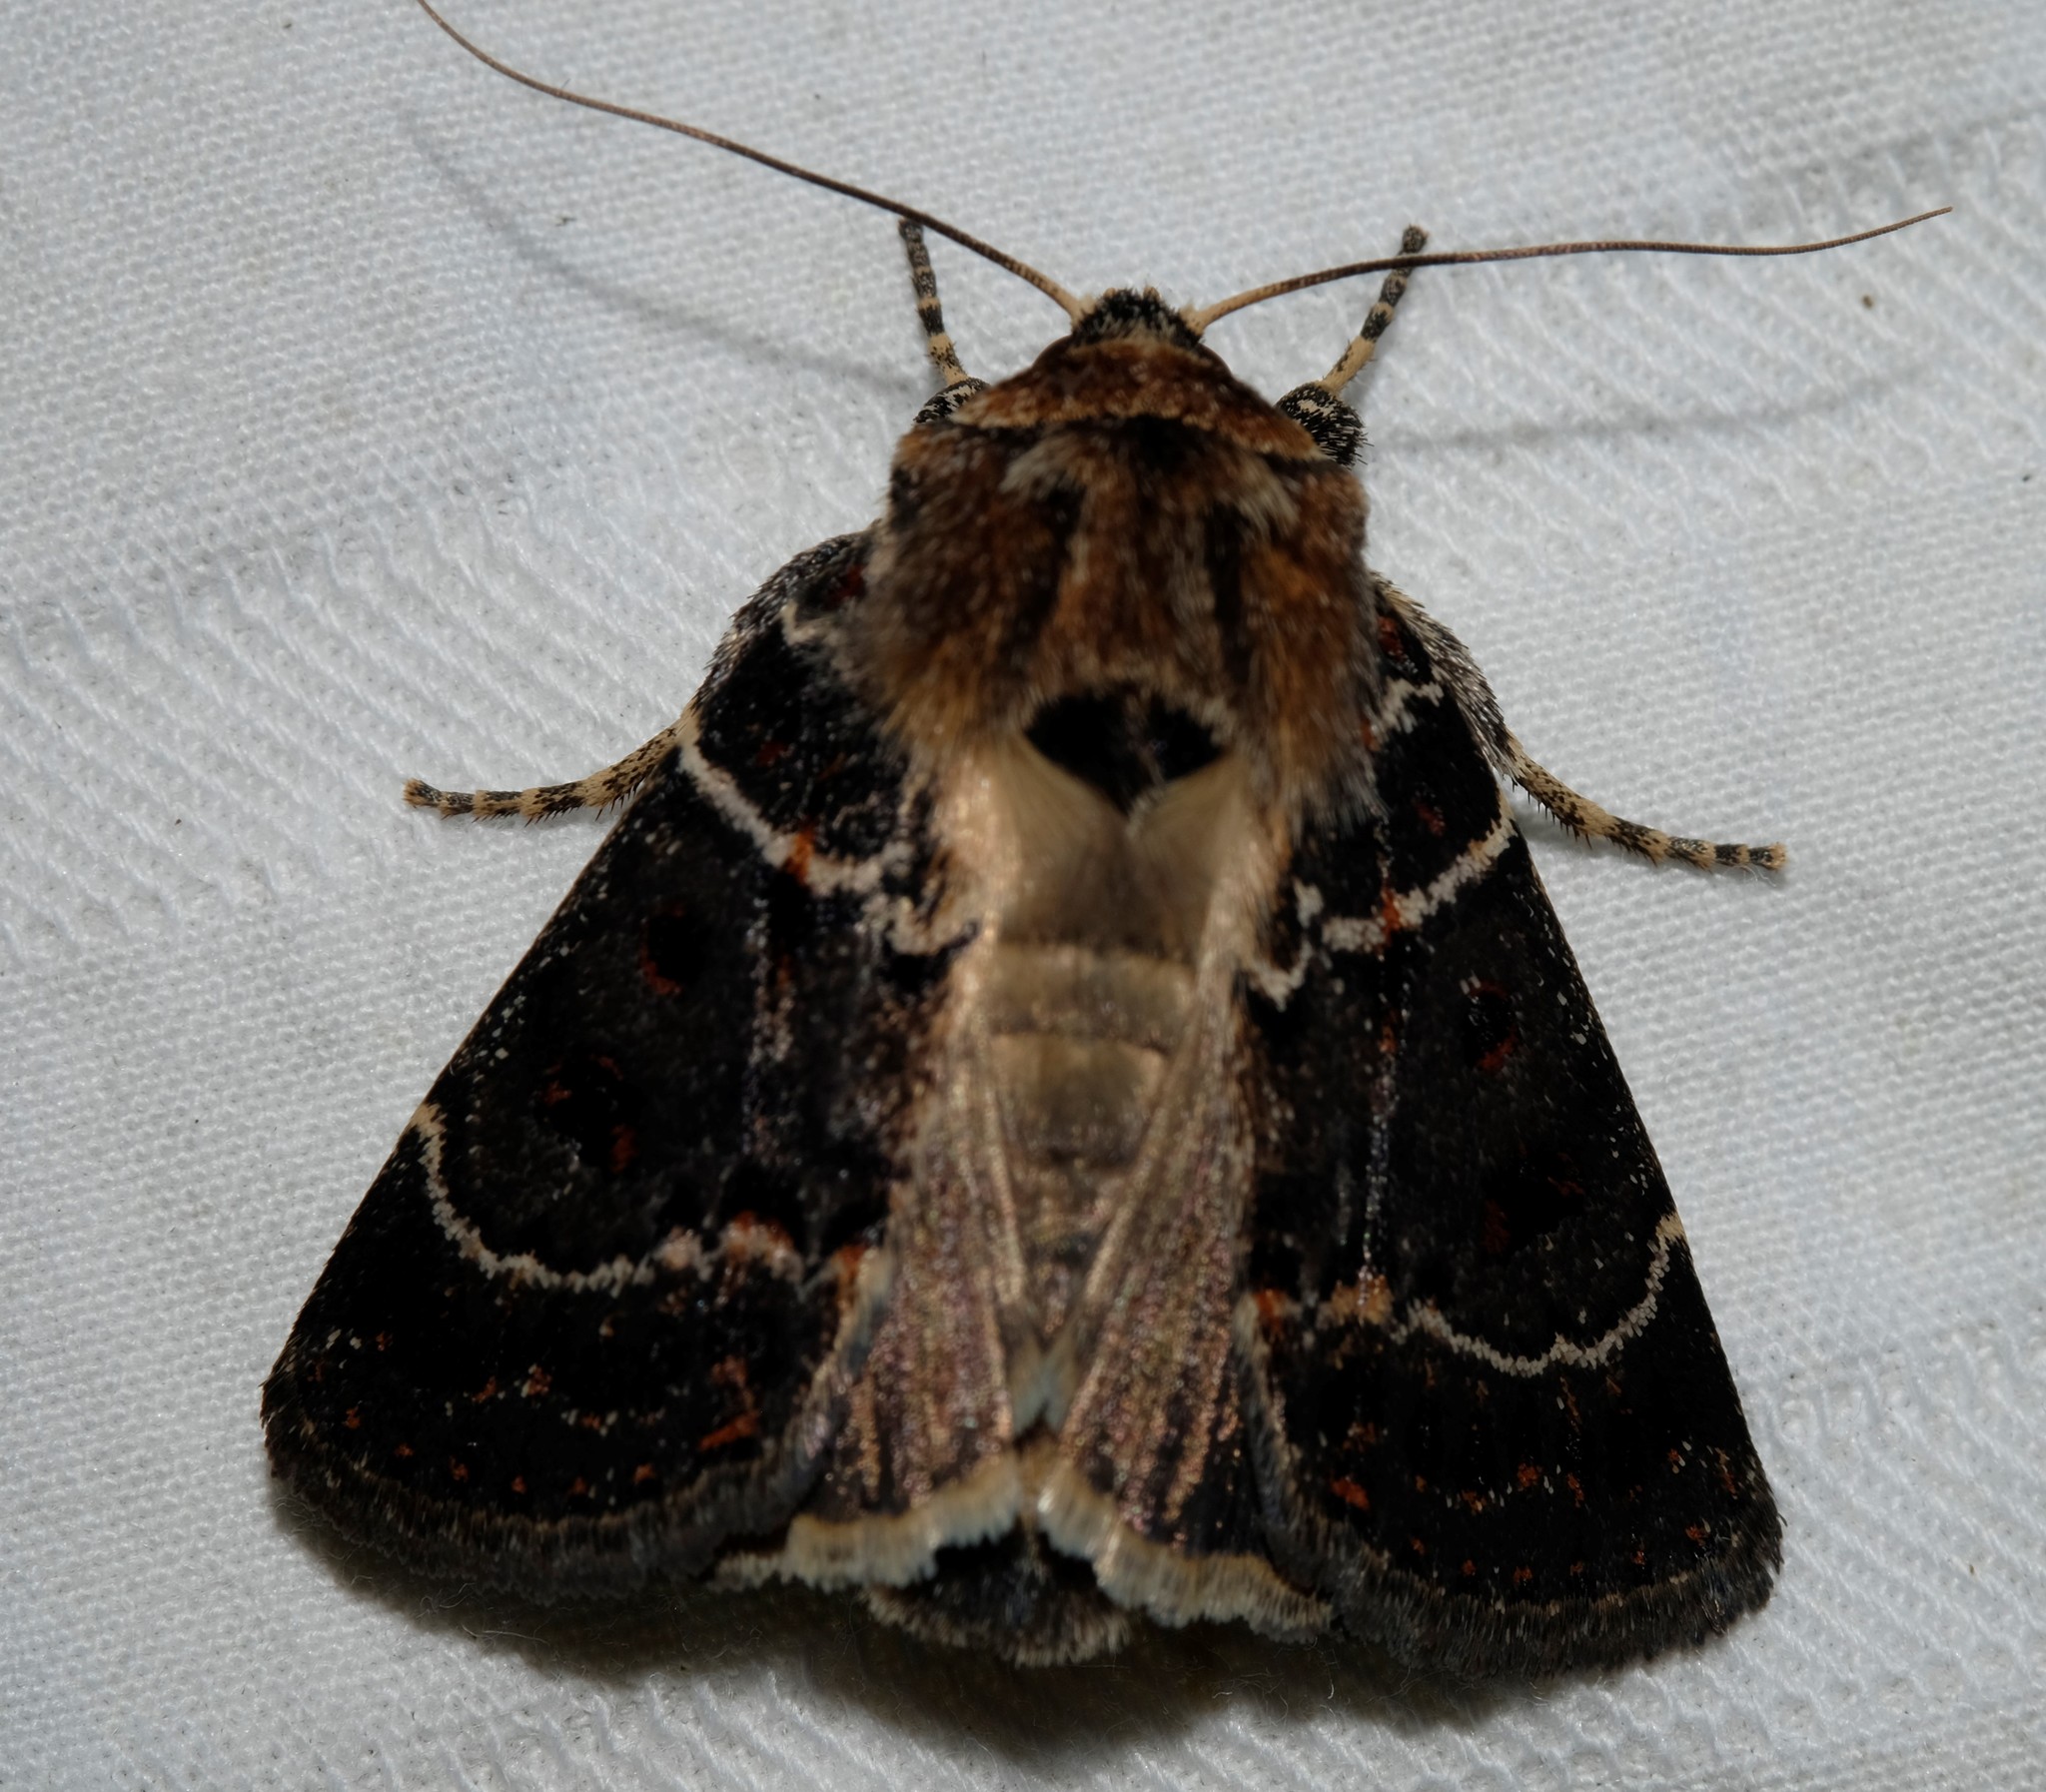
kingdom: Animalia
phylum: Arthropoda
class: Insecta
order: Lepidoptera
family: Noctuidae
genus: Proteuxoa
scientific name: Proteuxoa sanguinipuncta
